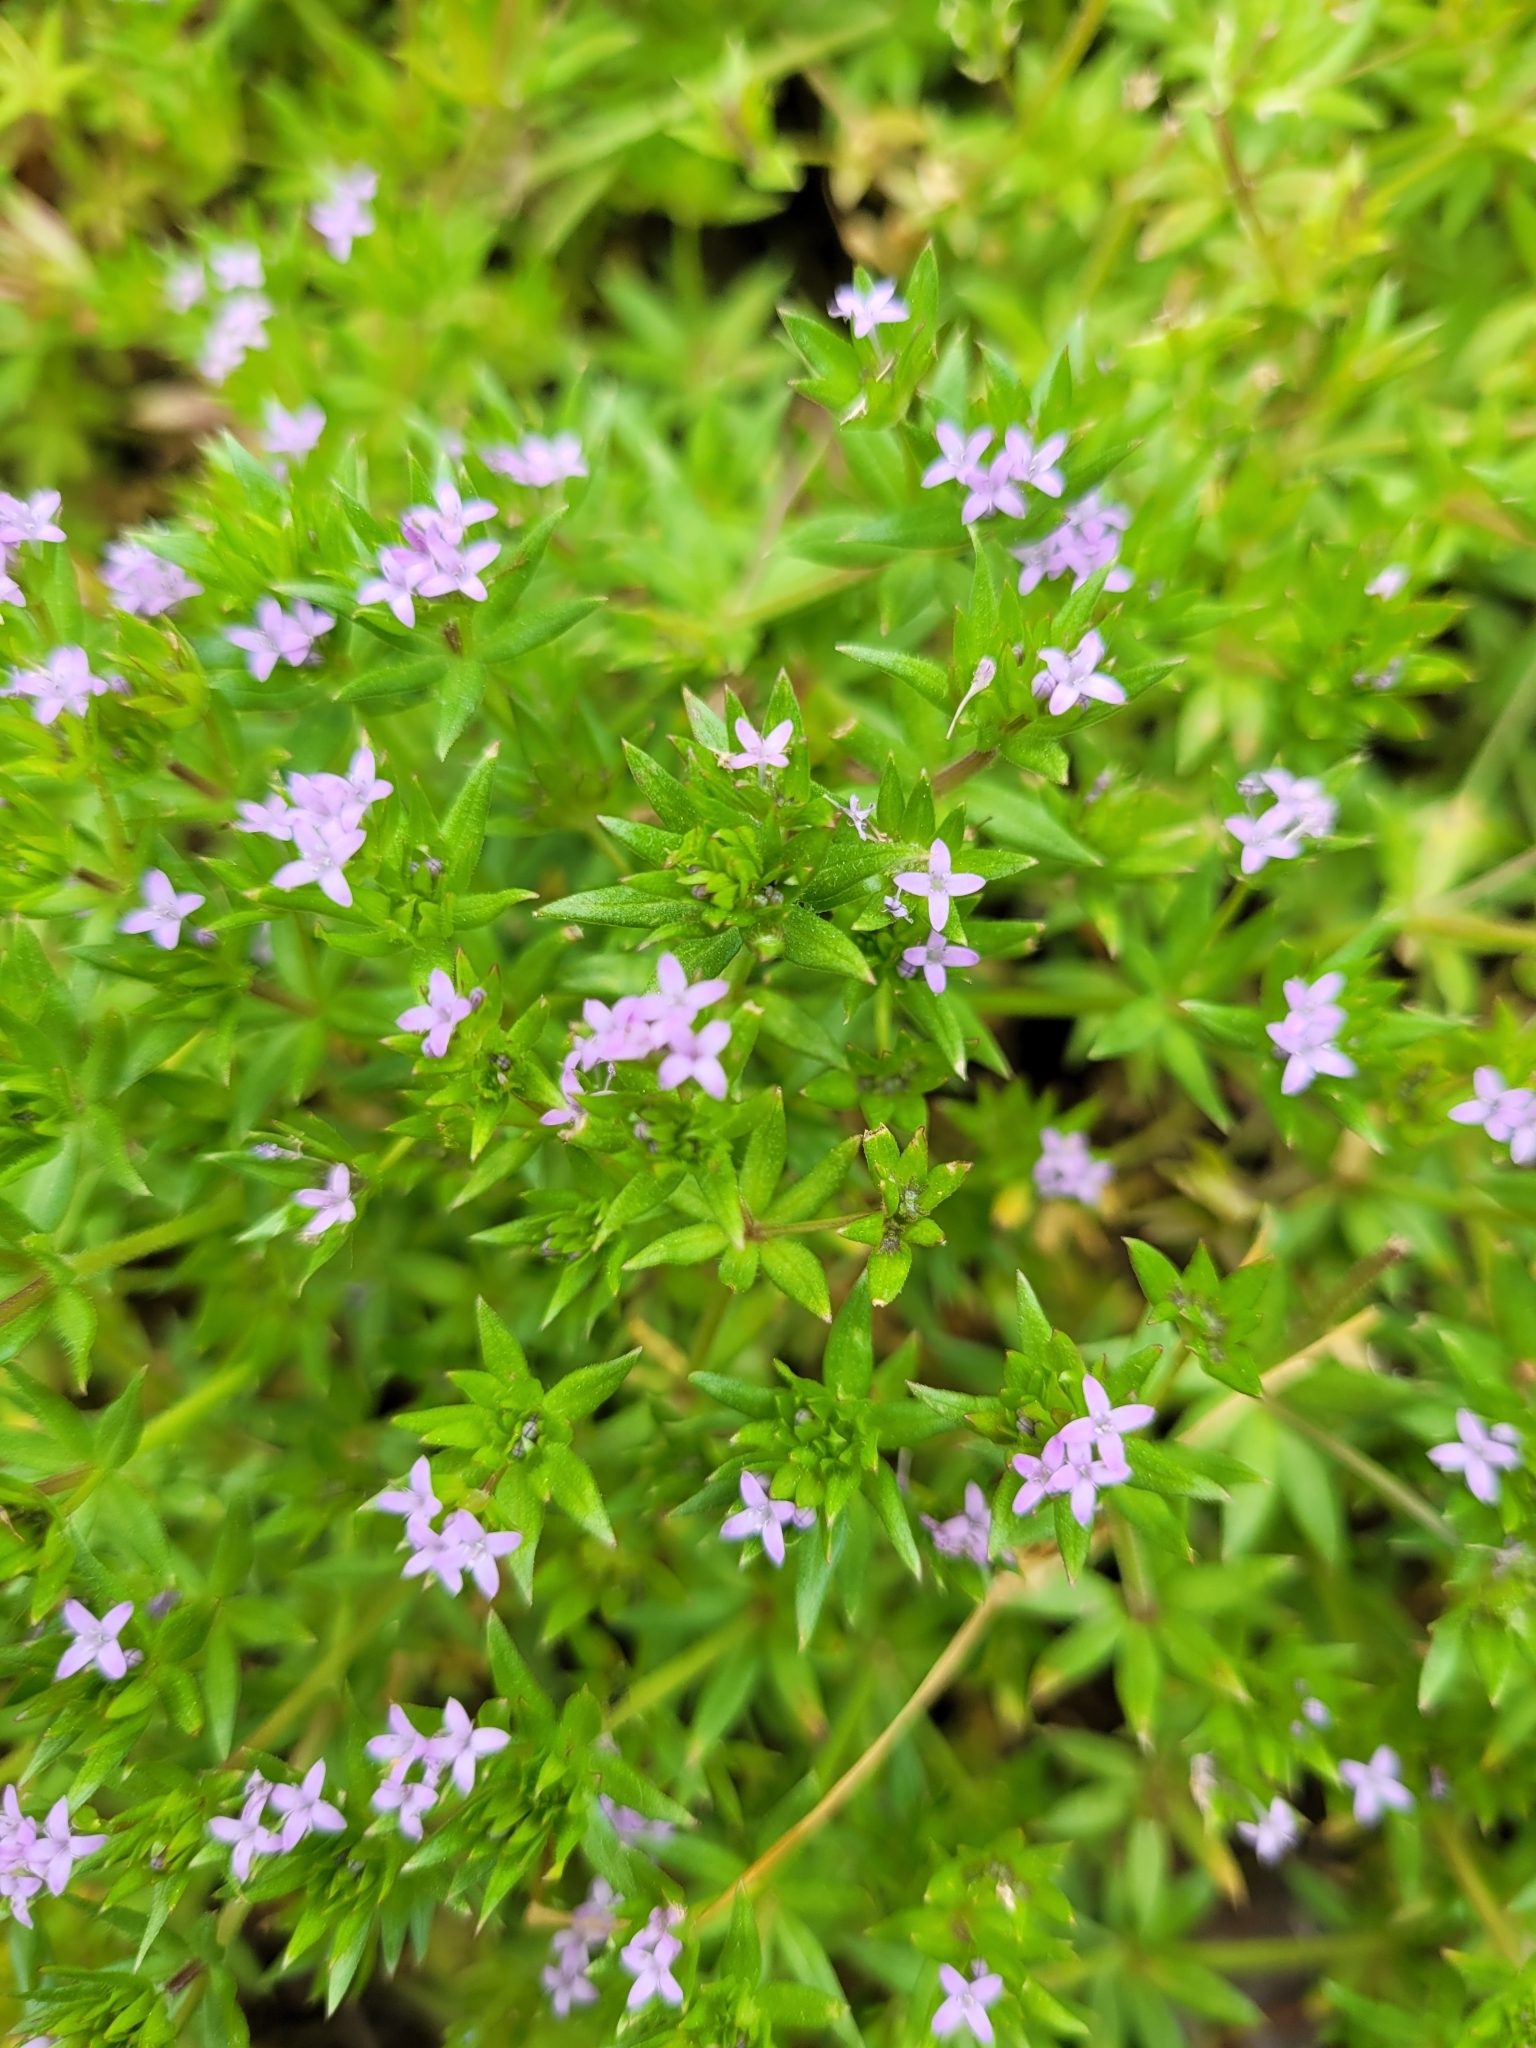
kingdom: Plantae
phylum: Tracheophyta
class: Magnoliopsida
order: Gentianales
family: Rubiaceae
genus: Sherardia
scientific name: Sherardia arvensis
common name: Field madder
